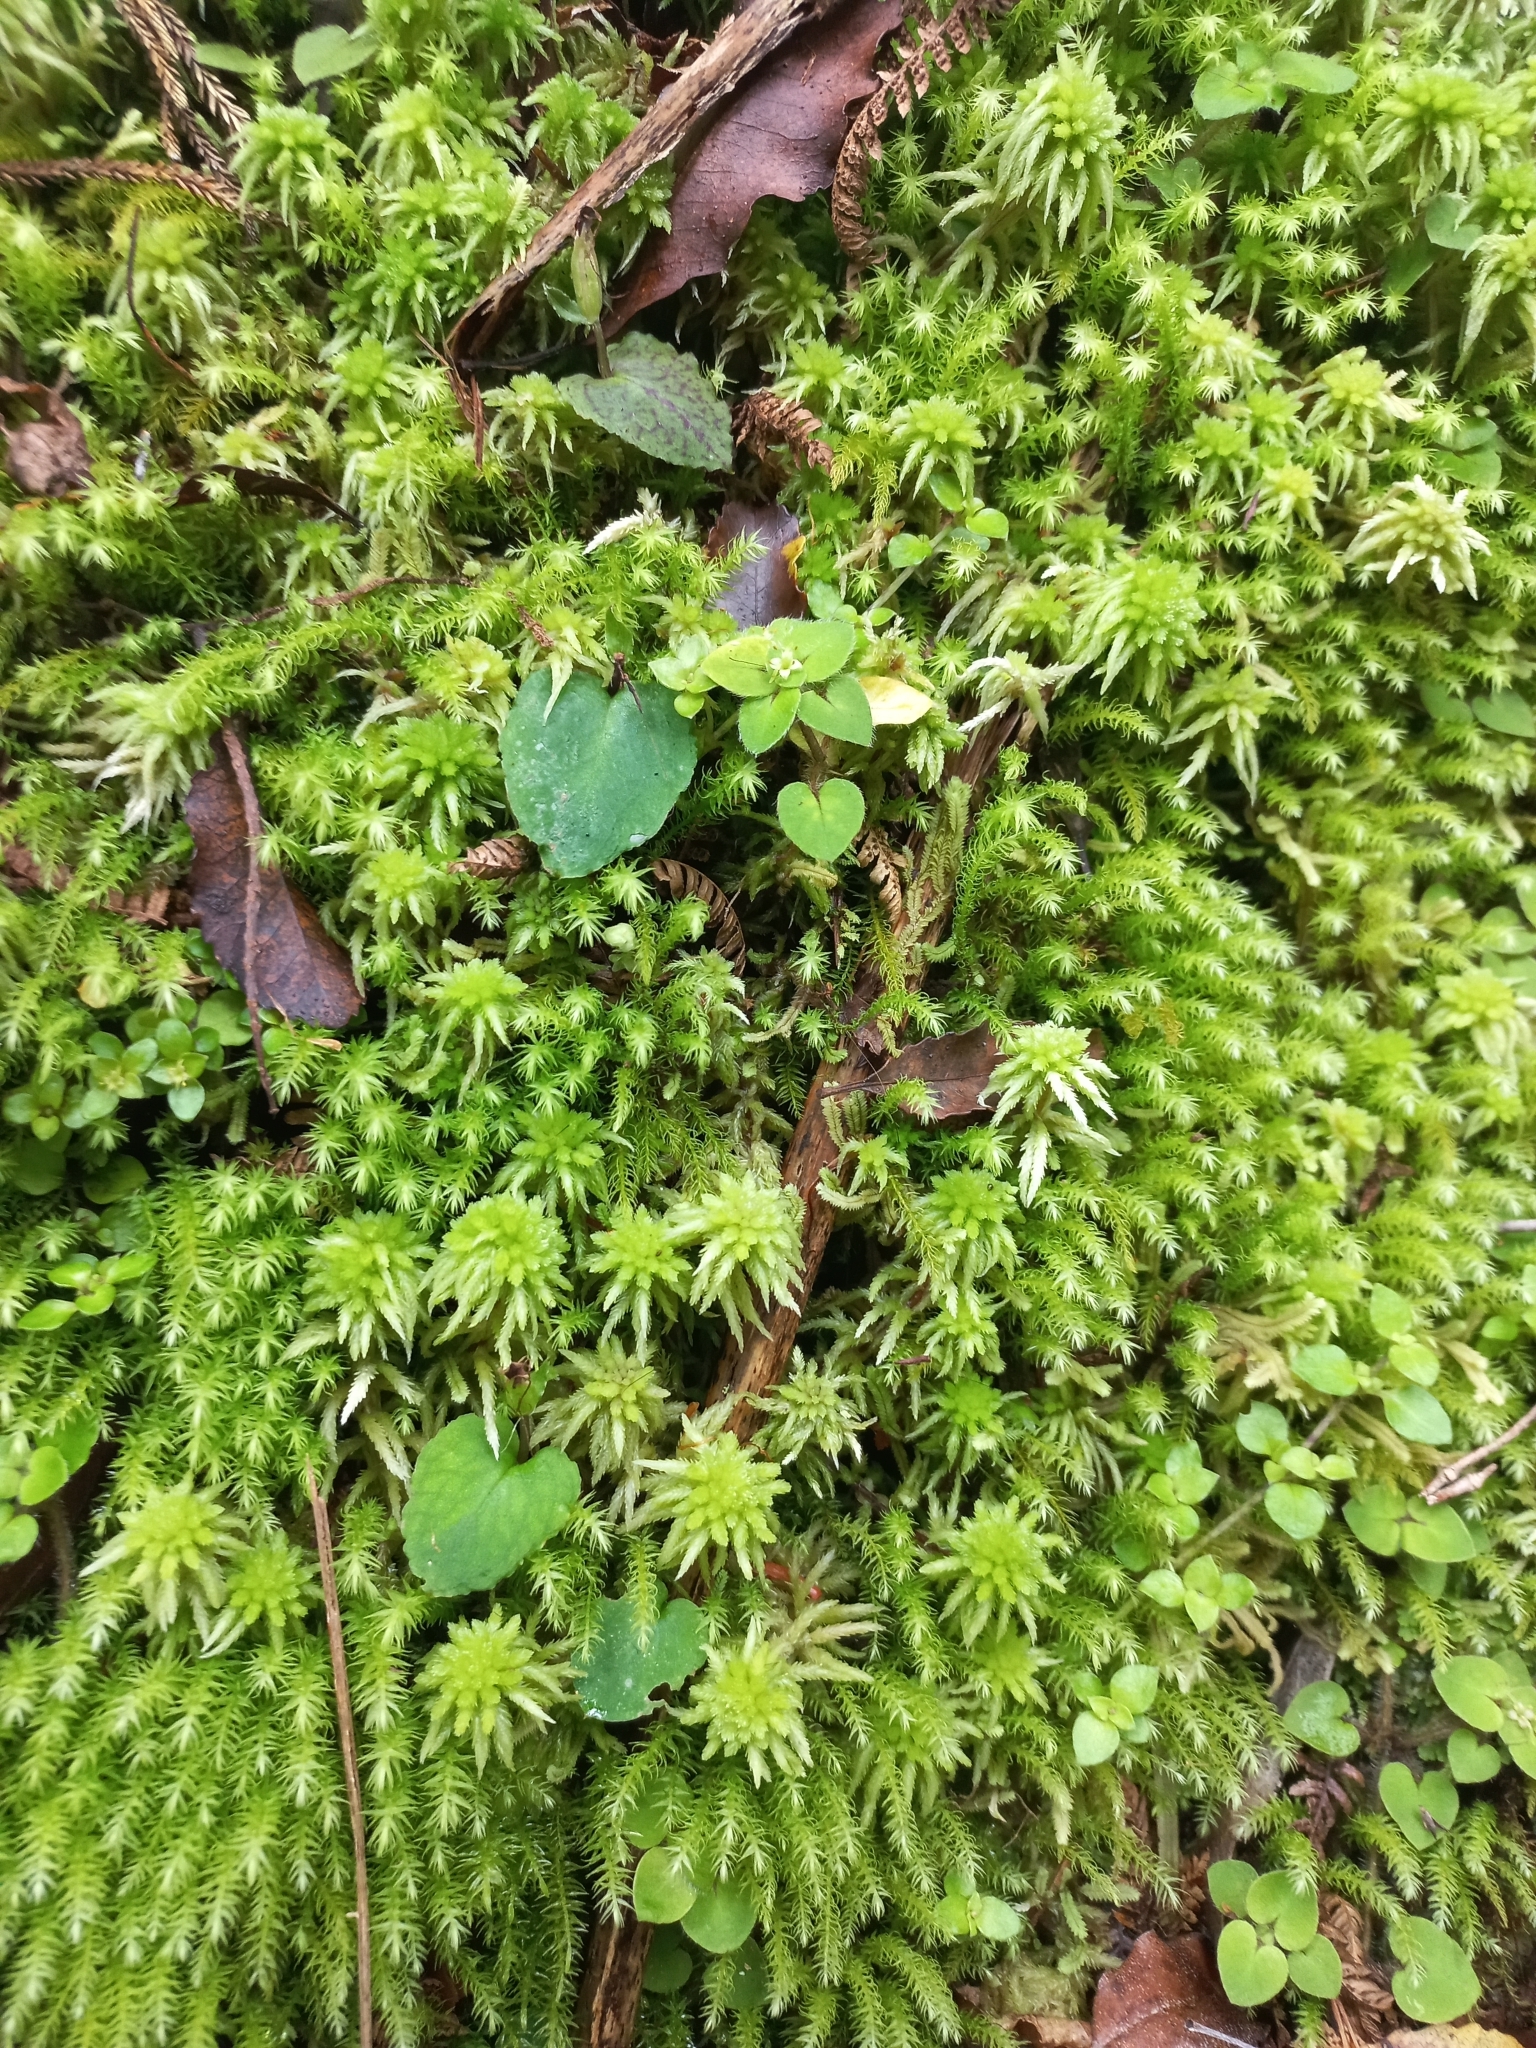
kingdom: Plantae
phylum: Tracheophyta
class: Liliopsida
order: Asparagales
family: Orchidaceae
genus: Corybas
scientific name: Corybas oblongus
